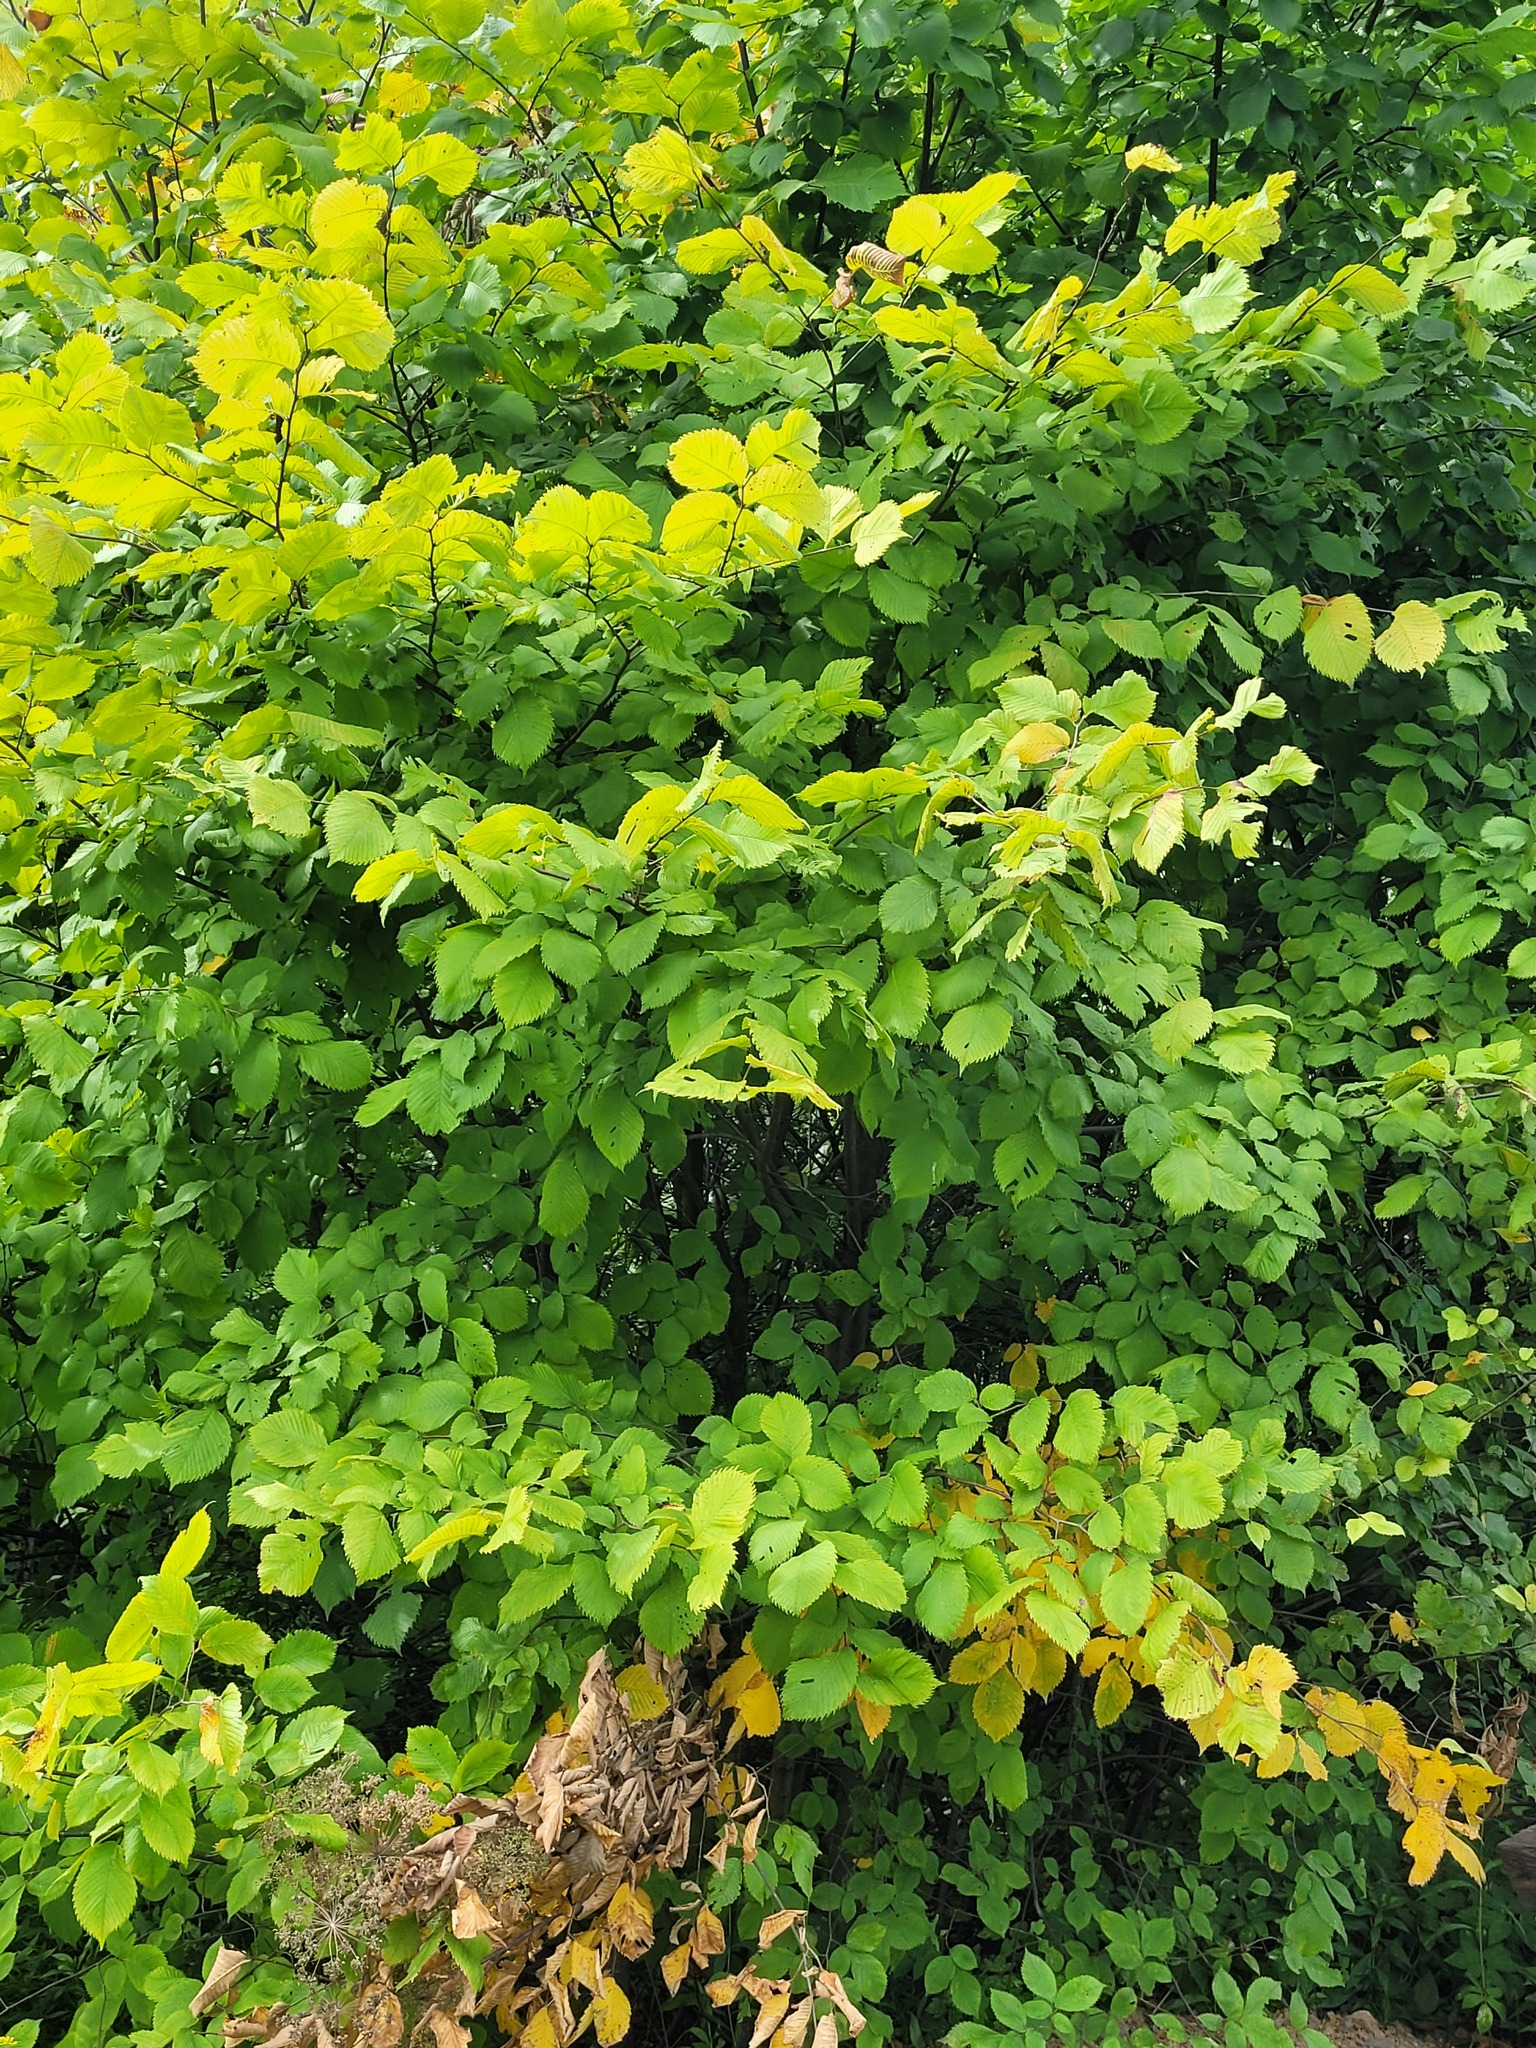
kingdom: Plantae
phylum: Tracheophyta
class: Magnoliopsida
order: Rosales
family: Ulmaceae
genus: Ulmus
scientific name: Ulmus laevis
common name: European white-elm
